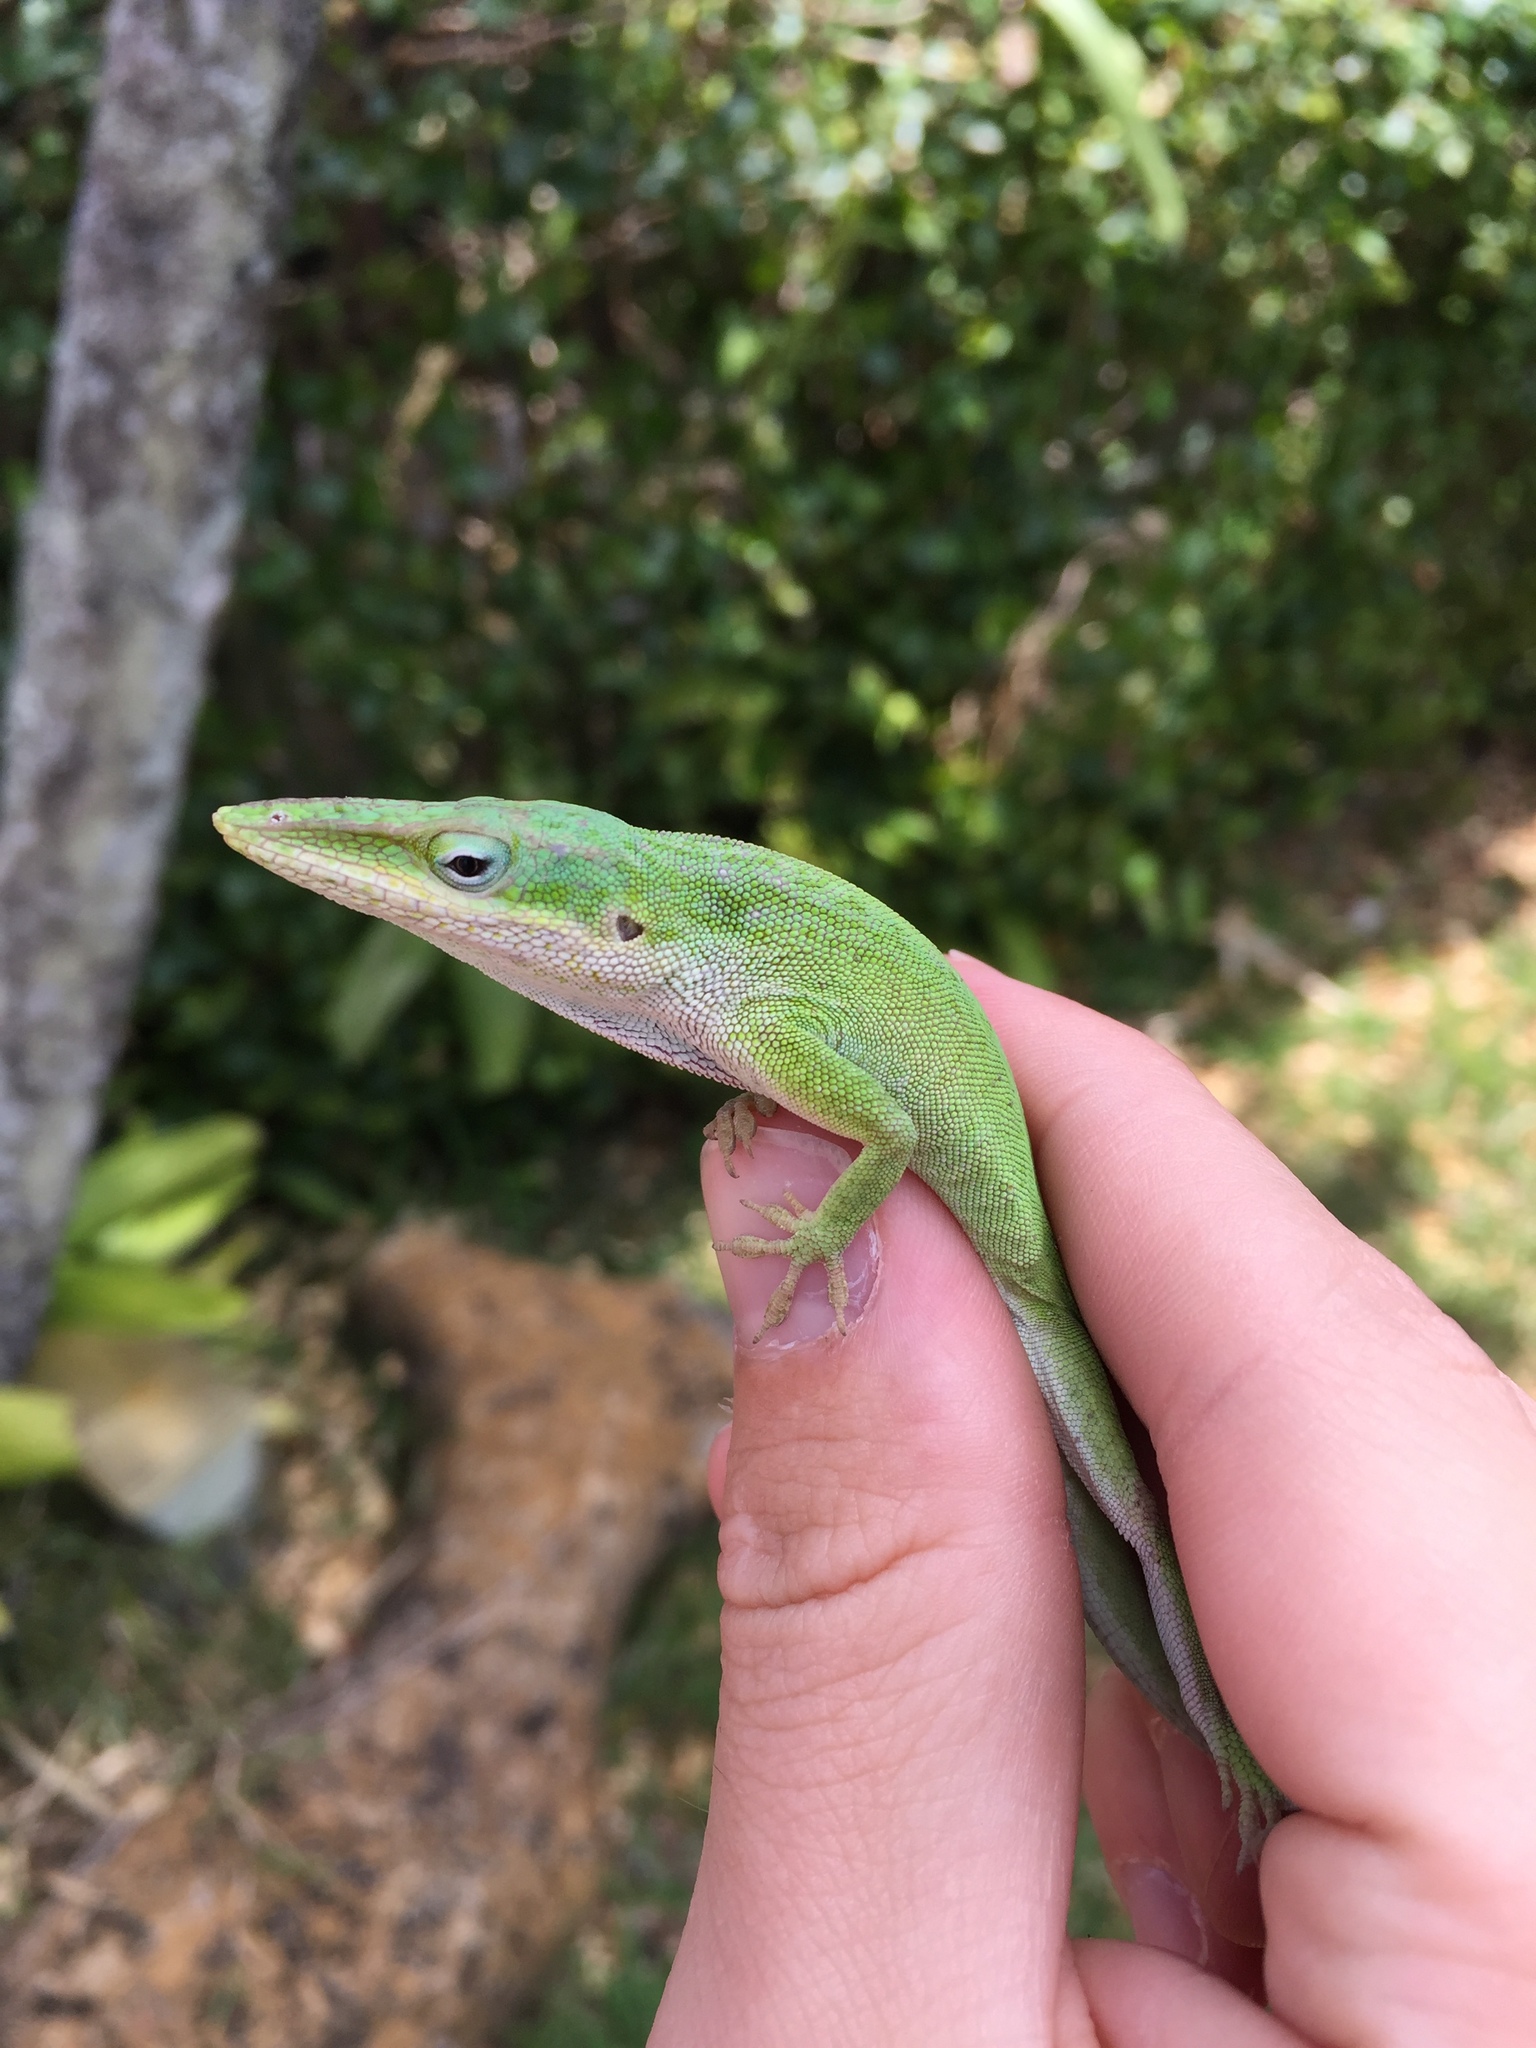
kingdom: Animalia
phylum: Chordata
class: Squamata
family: Dactyloidae
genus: Anolis
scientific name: Anolis carolinensis
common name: Green anole
